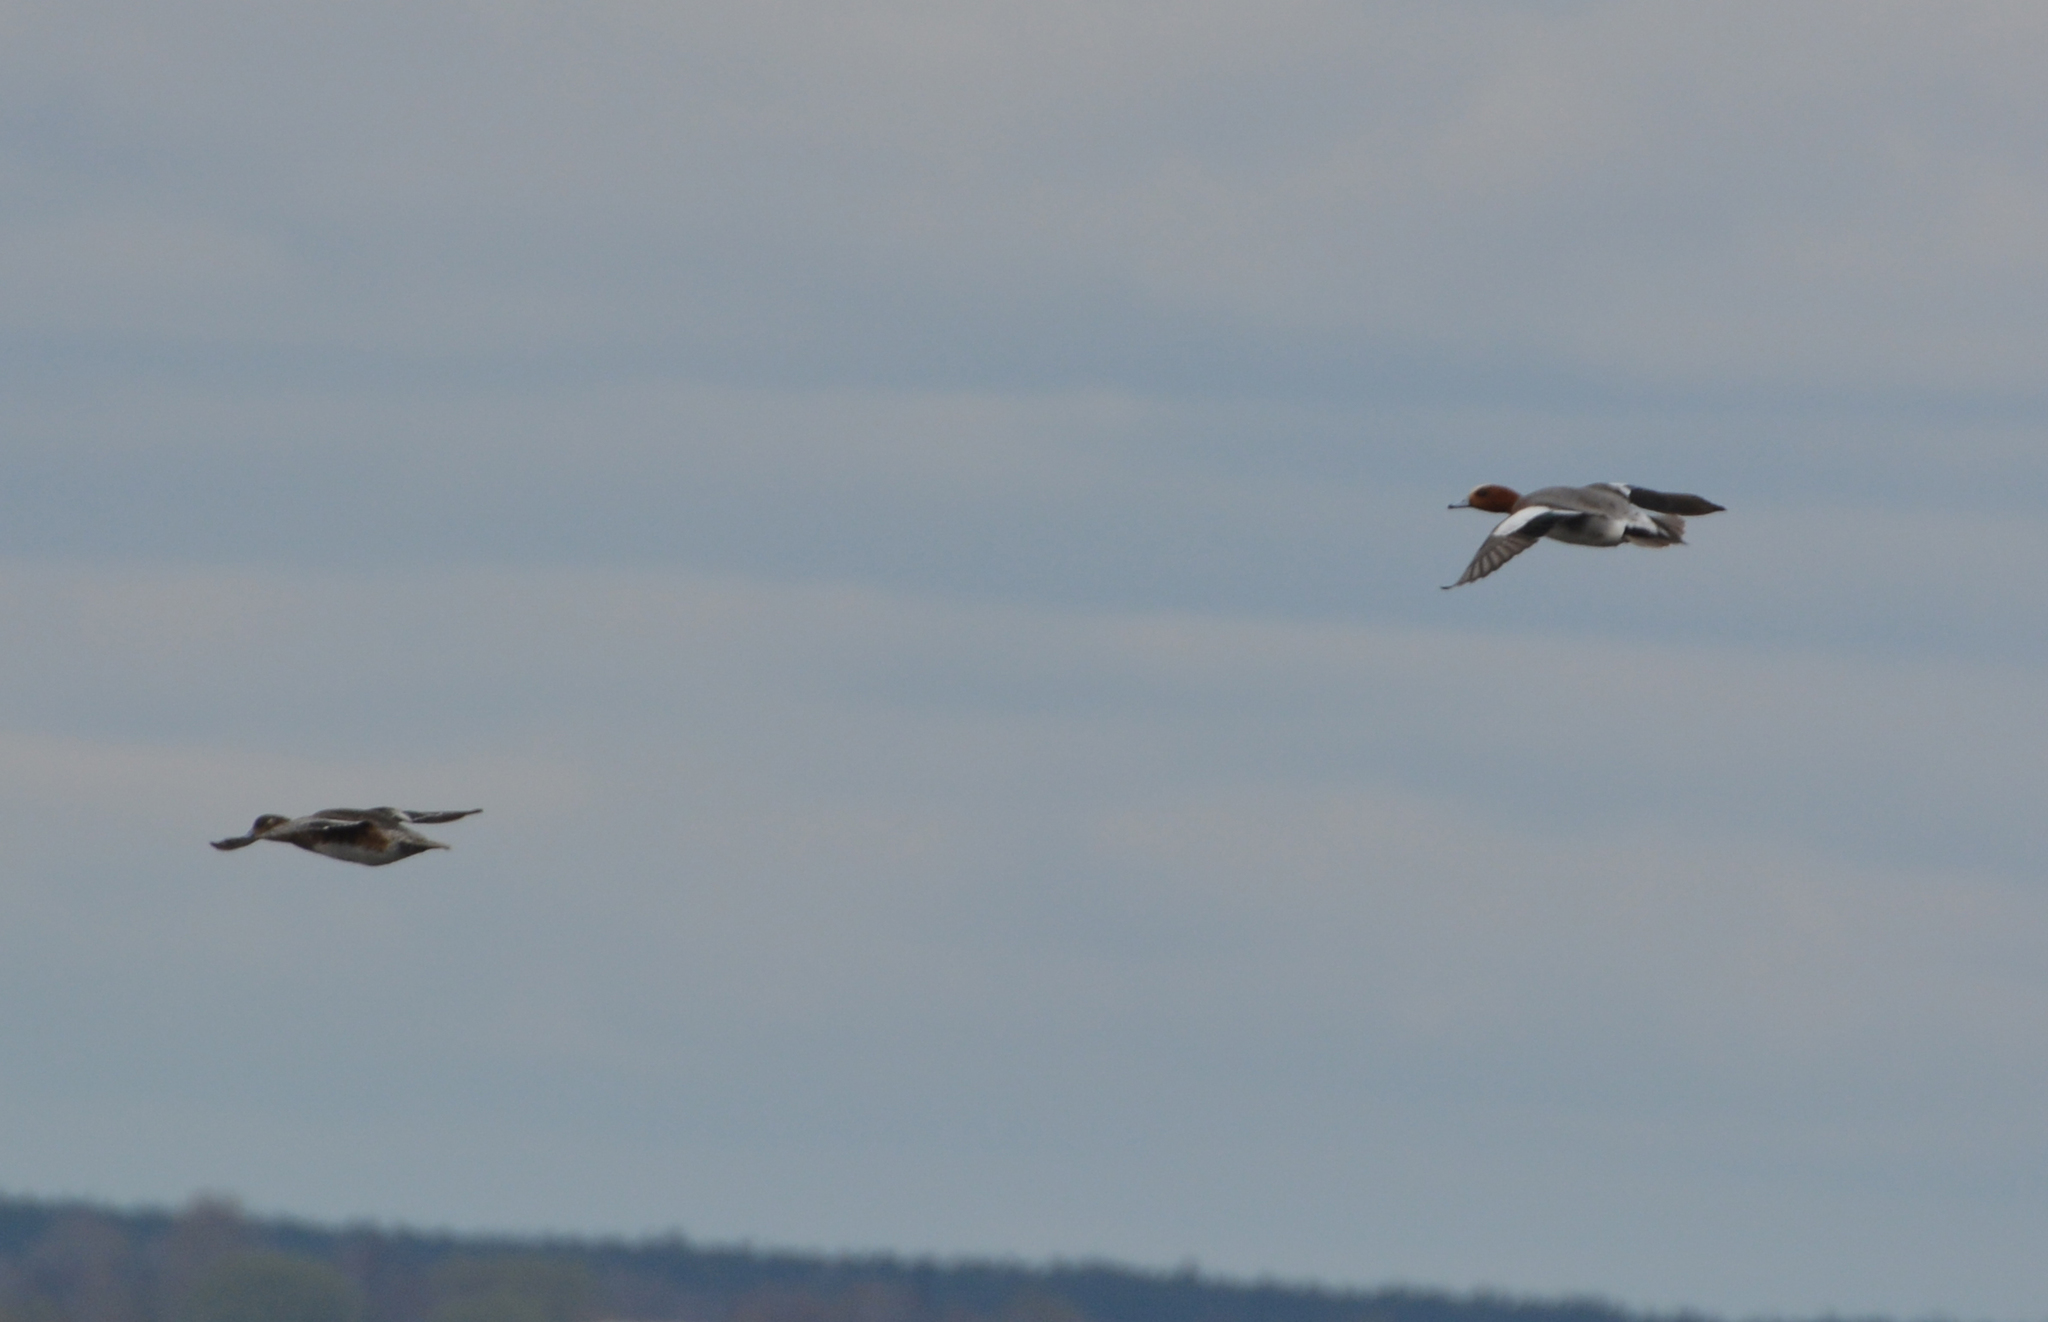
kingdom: Animalia
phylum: Chordata
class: Aves
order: Anseriformes
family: Anatidae
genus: Mareca
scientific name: Mareca penelope
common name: Eurasian wigeon
